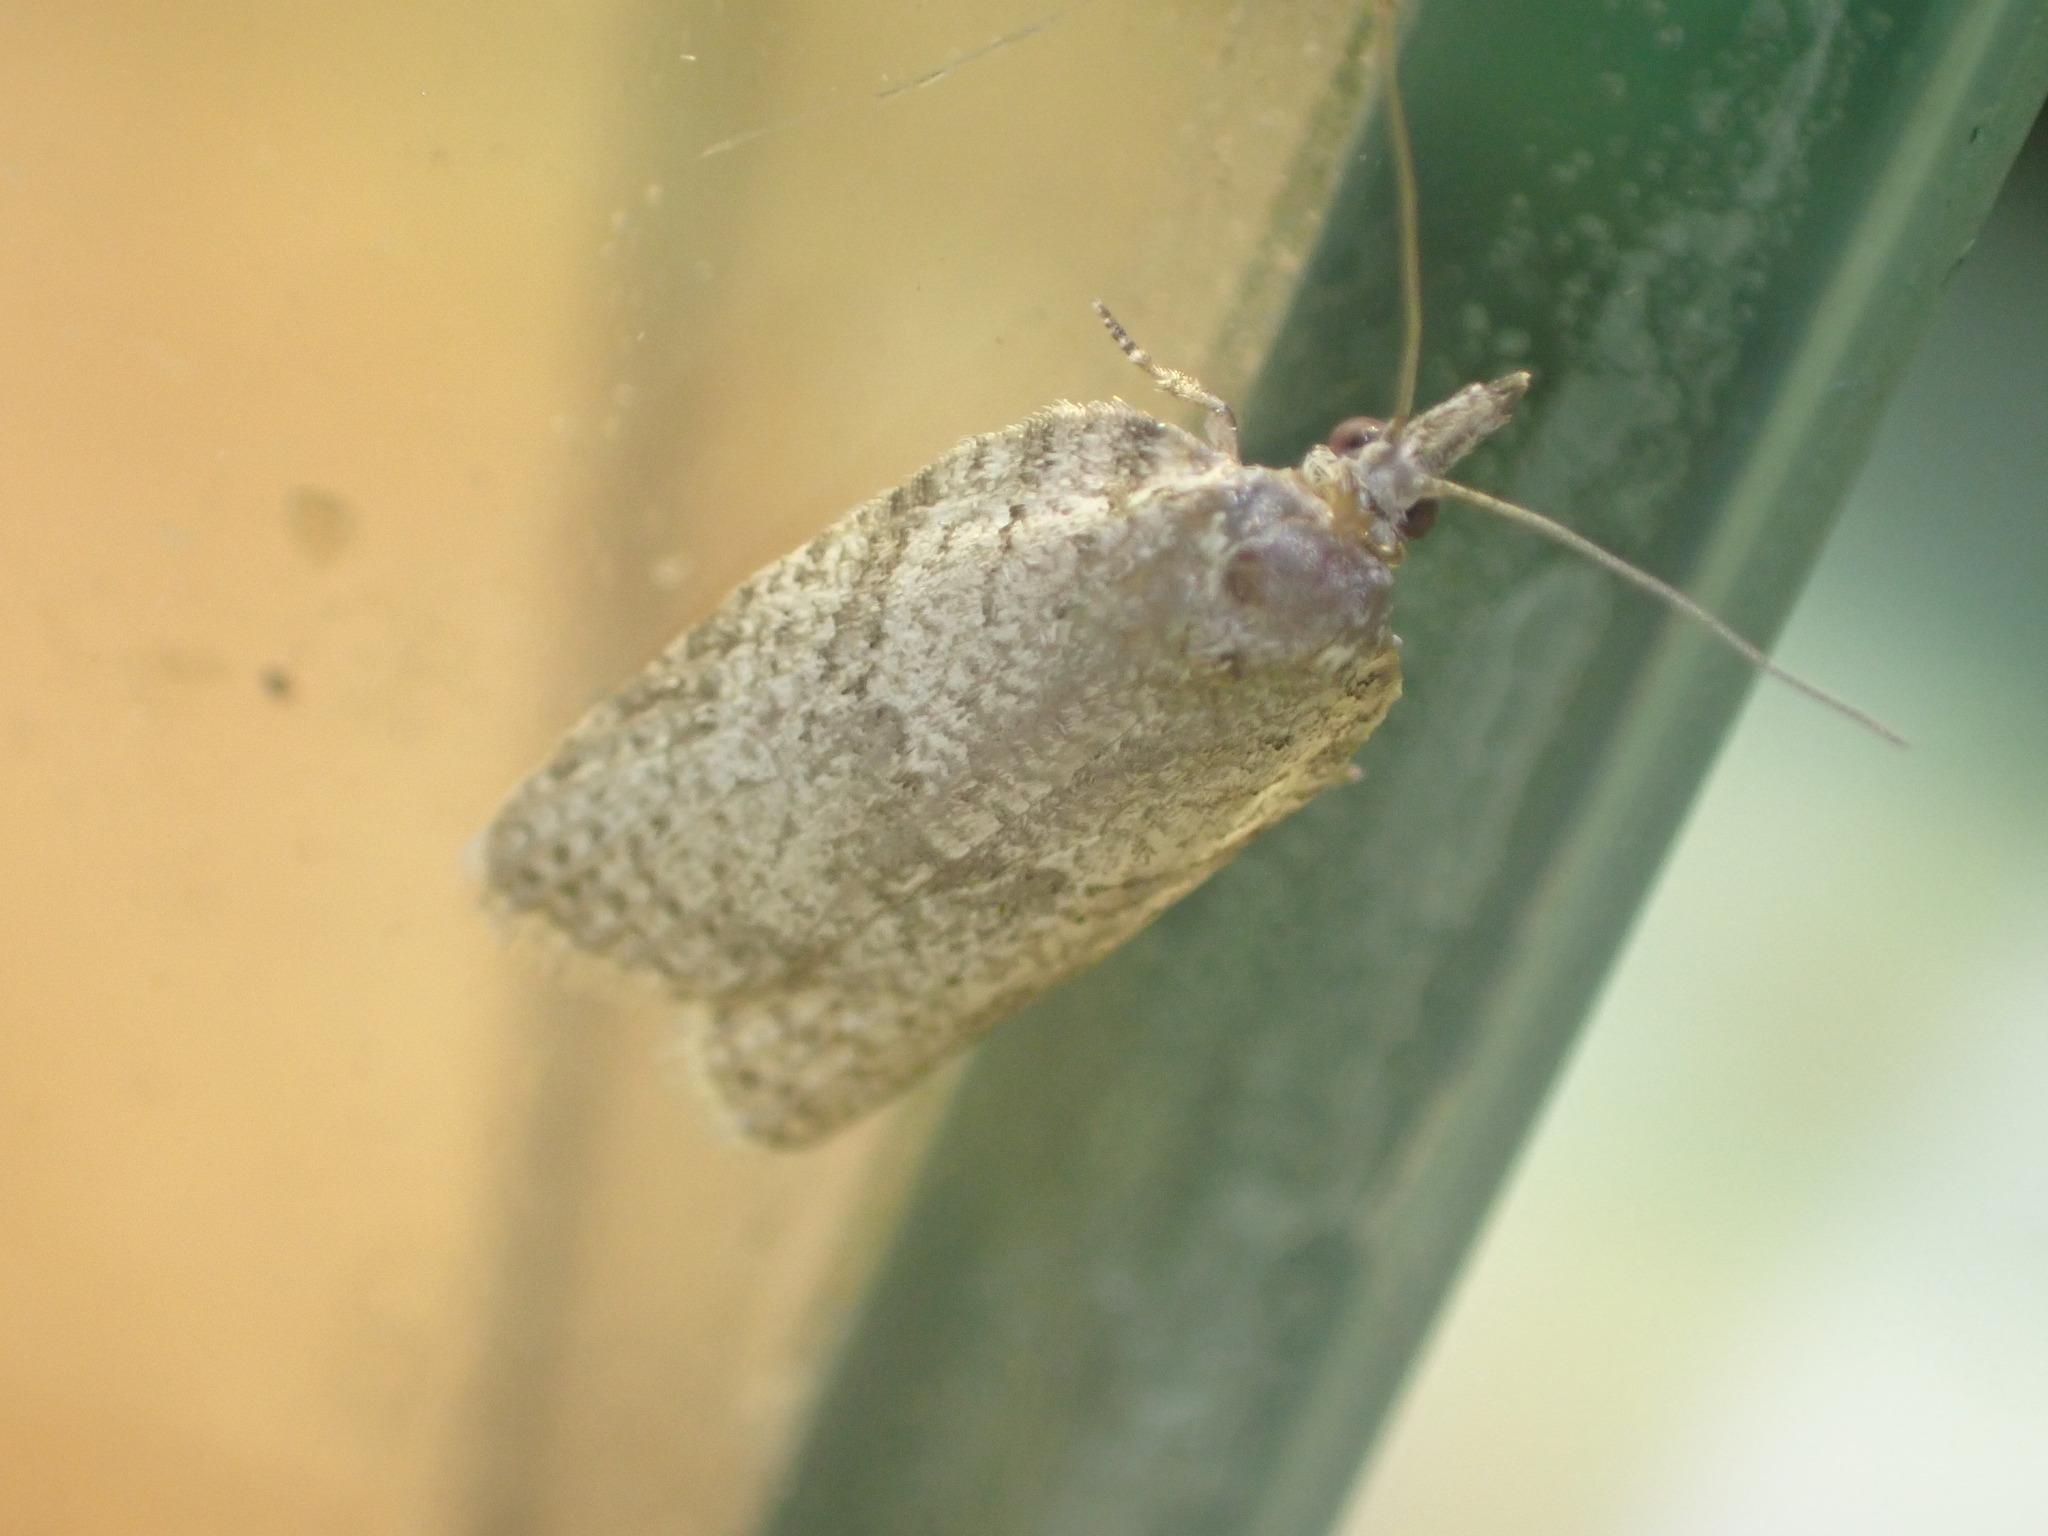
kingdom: Animalia
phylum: Arthropoda
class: Insecta
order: Lepidoptera
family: Tortricidae
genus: Isotenes
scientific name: Isotenes miserana
